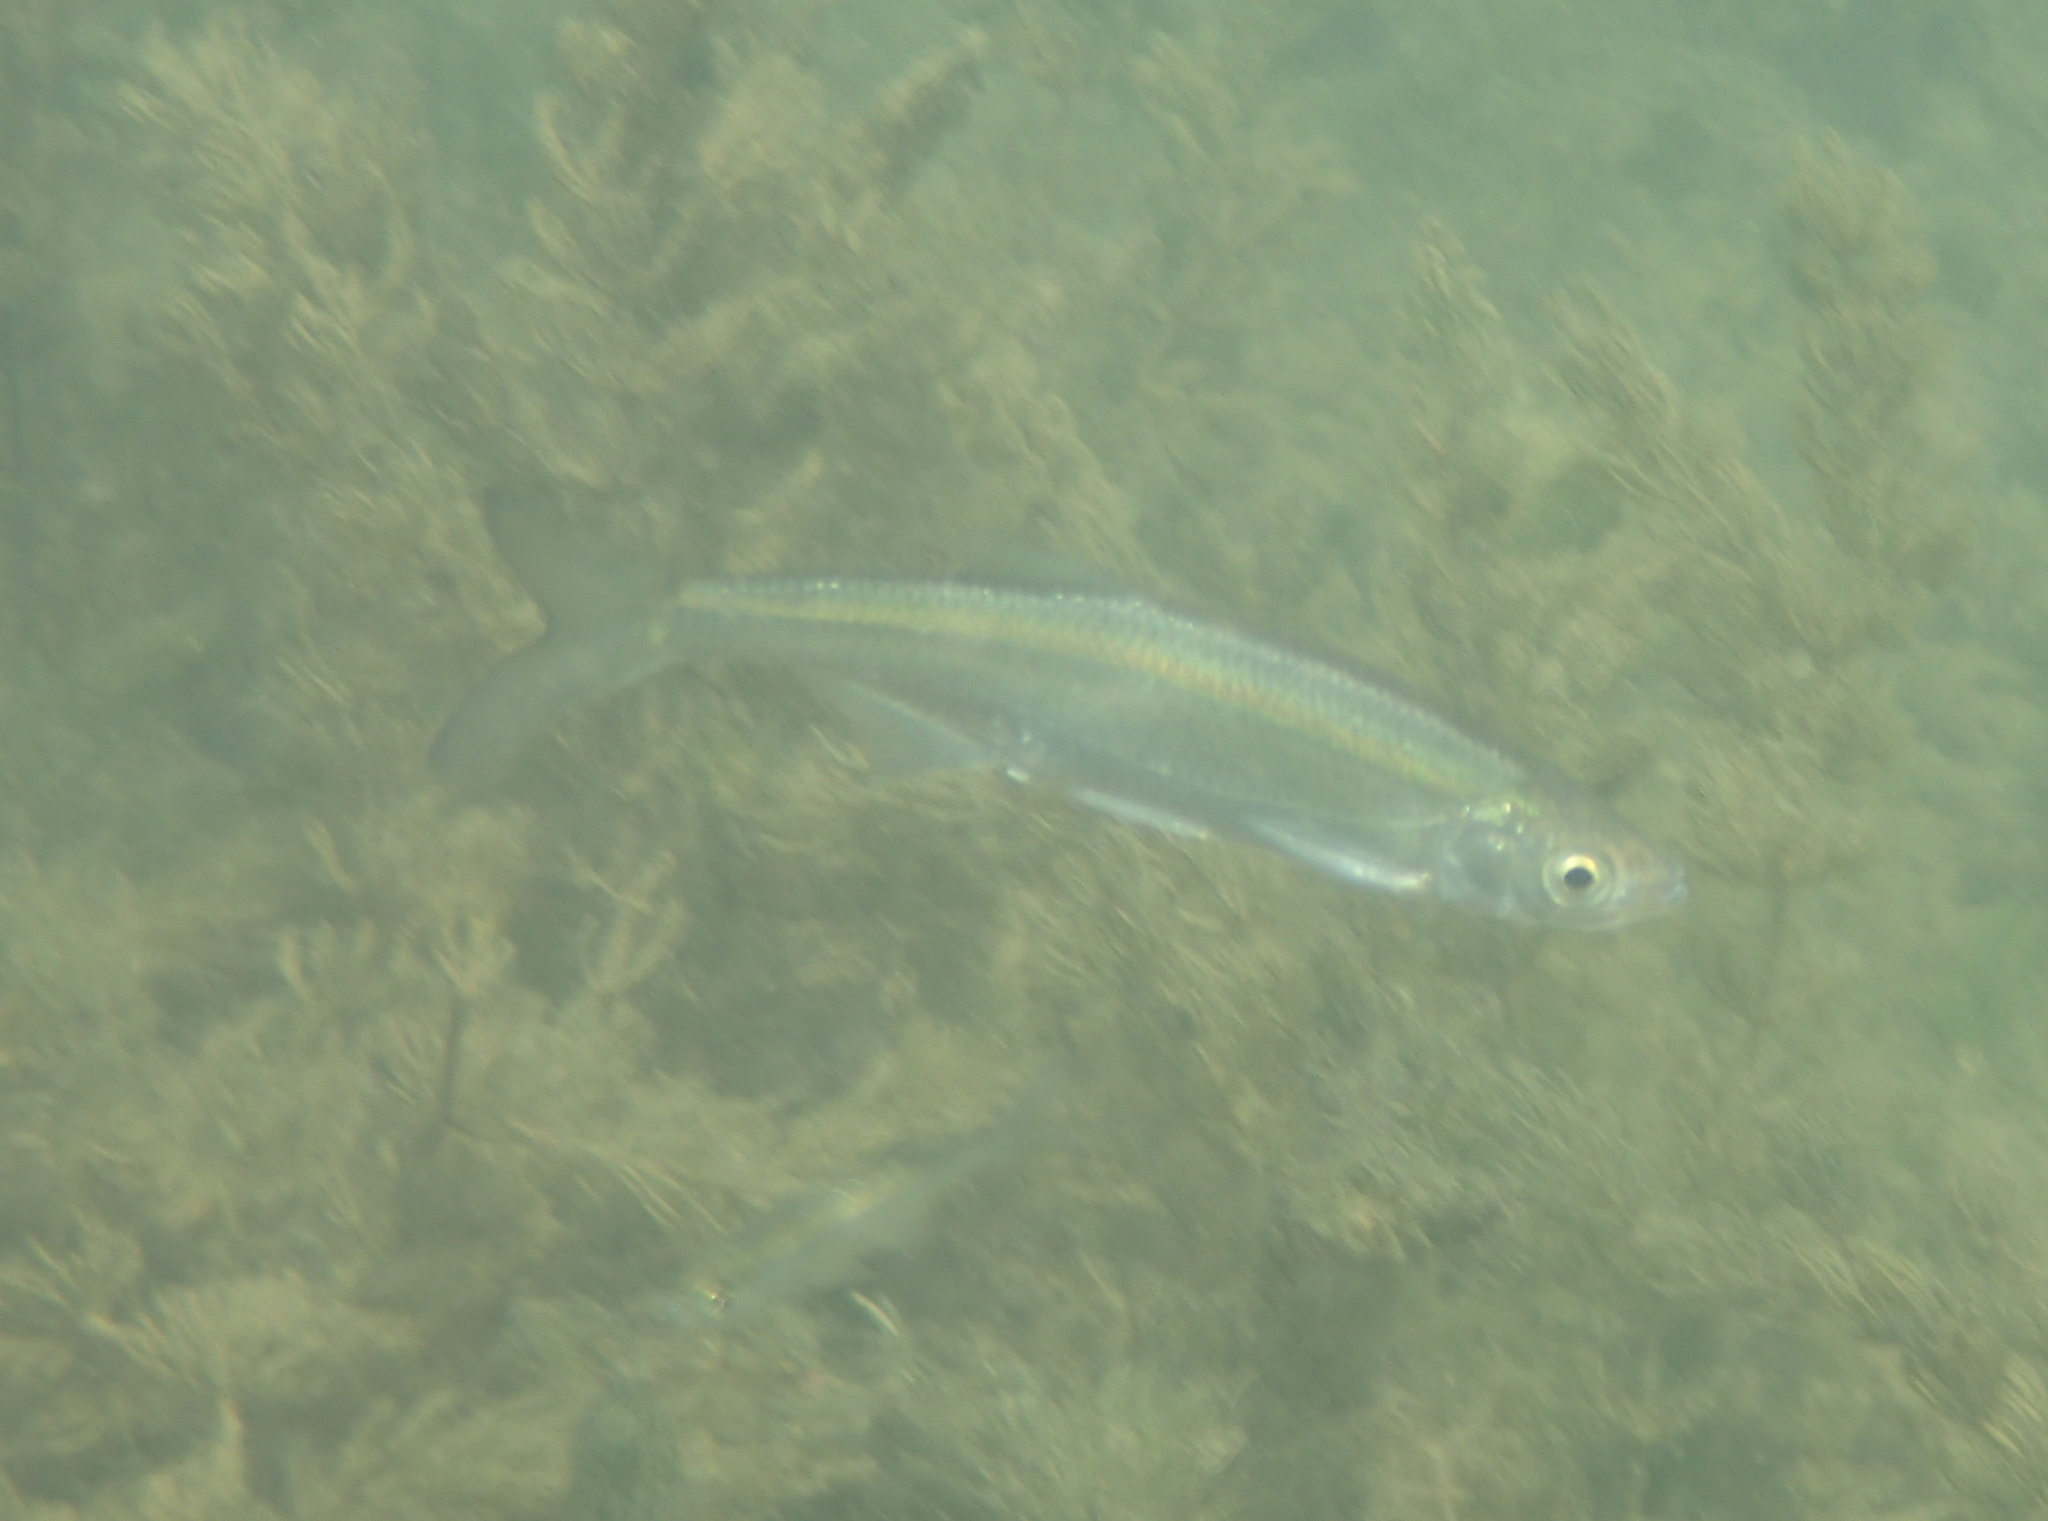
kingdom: Animalia
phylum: Chordata
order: Cypriniformes
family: Cyprinidae
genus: Alburnus
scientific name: Alburnus alburnus
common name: Bleak
